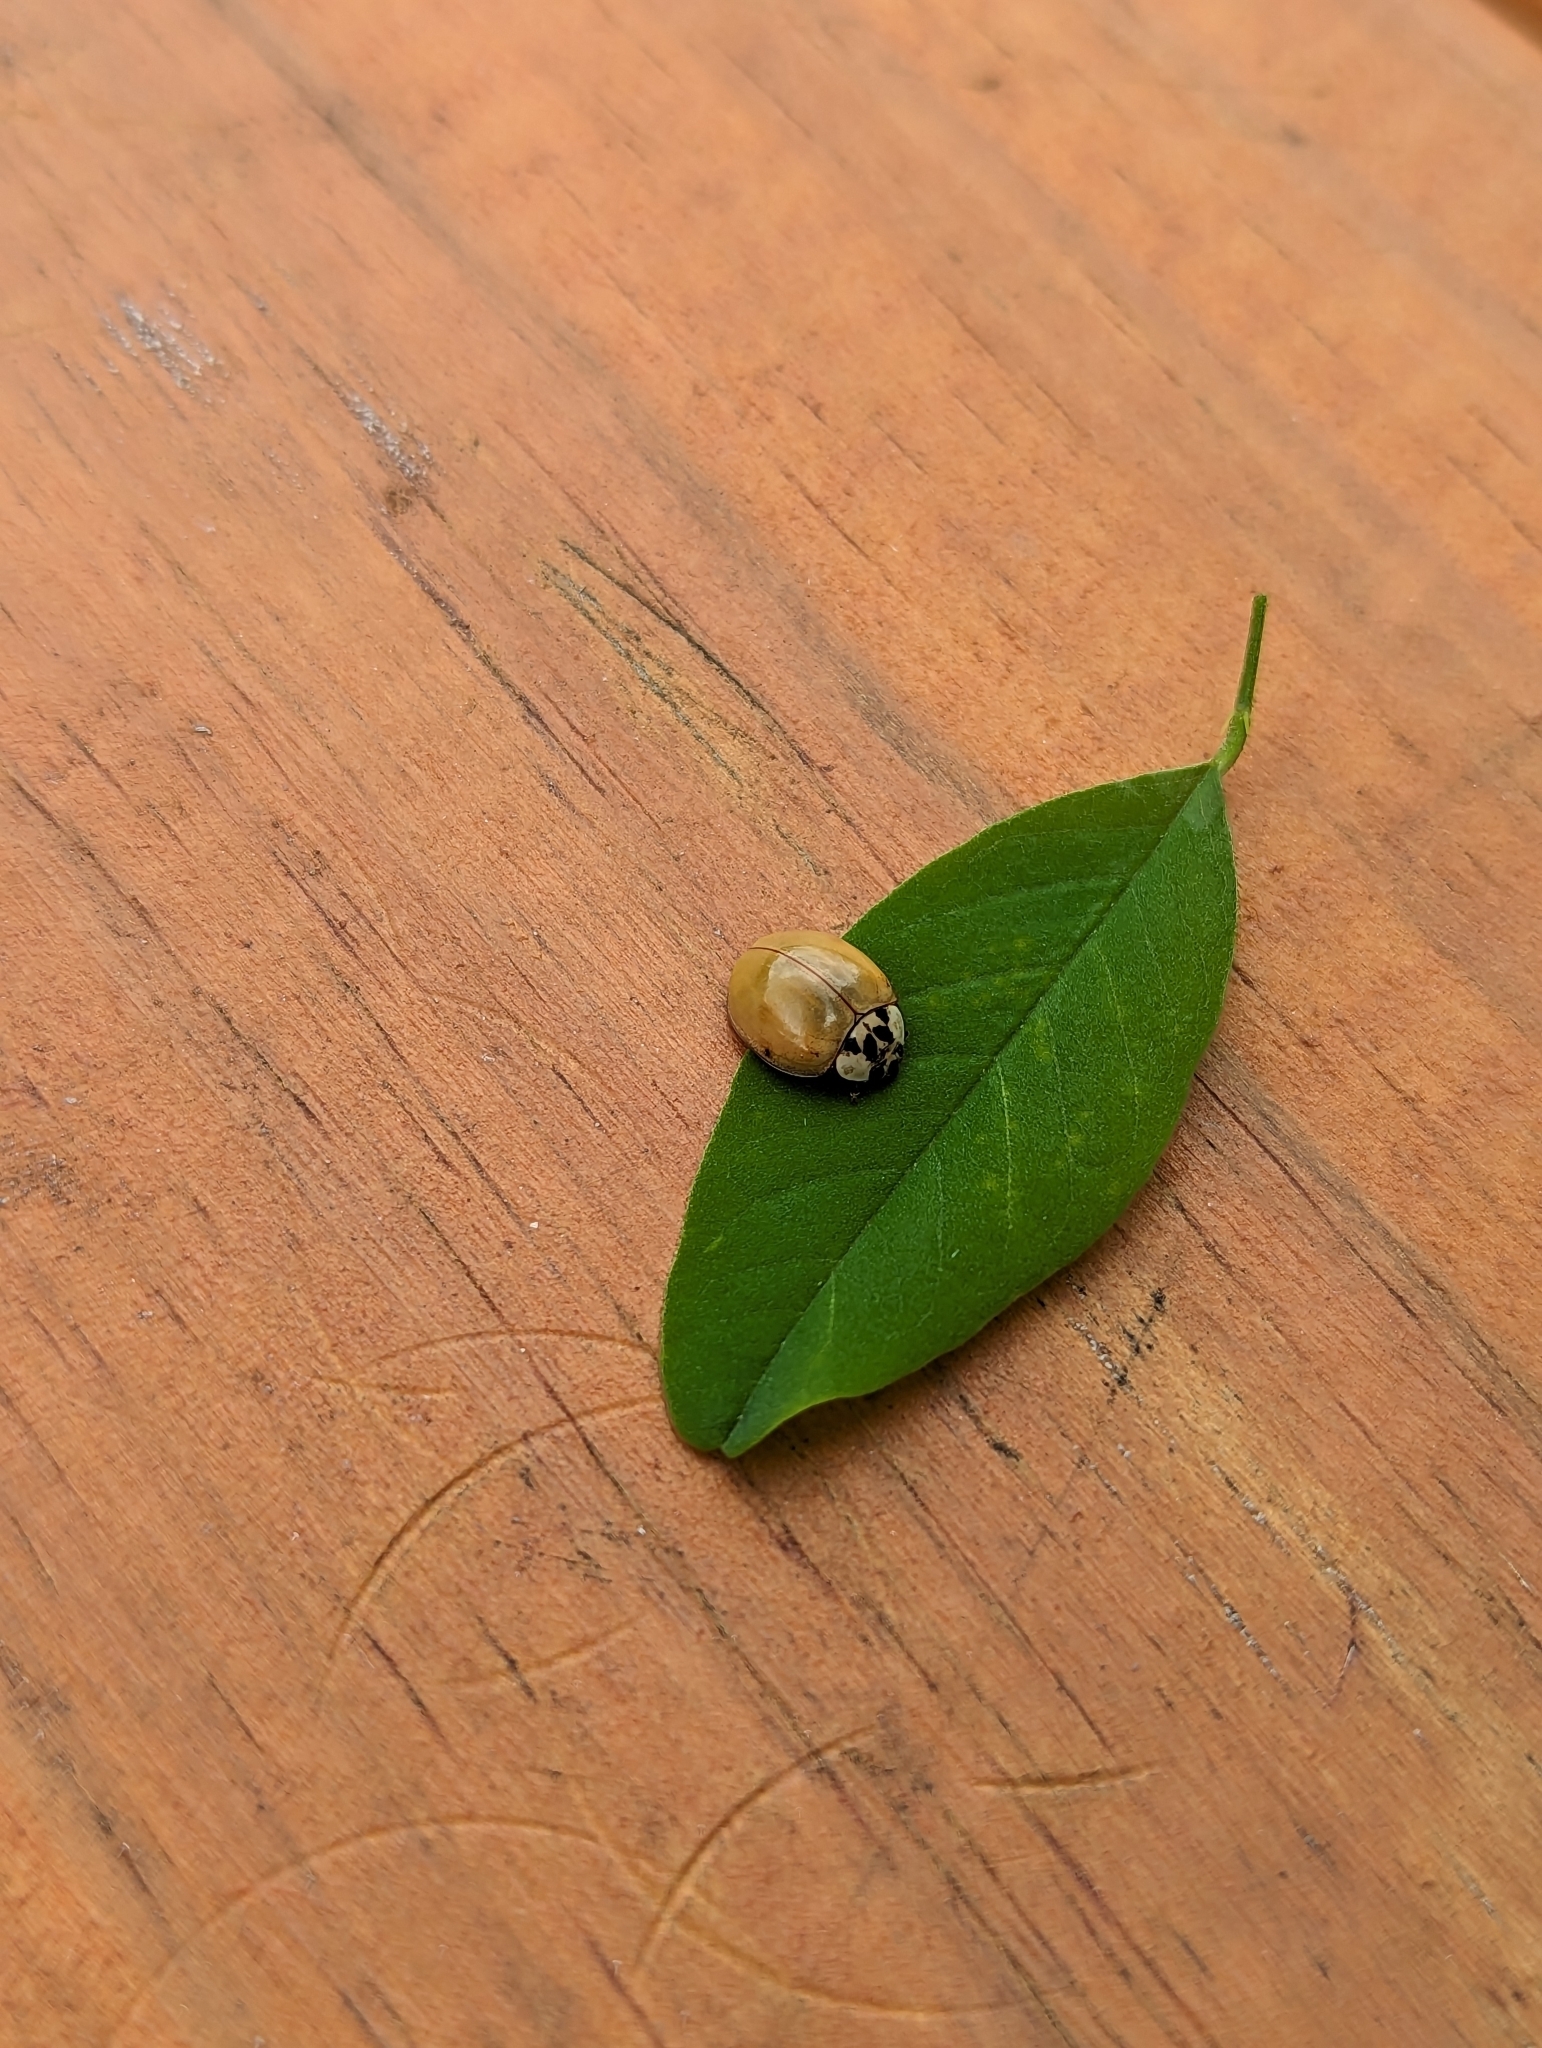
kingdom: Animalia
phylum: Arthropoda
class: Insecta
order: Coleoptera
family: Coccinellidae
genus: Harmonia
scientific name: Harmonia axyridis
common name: Harlequin ladybird
